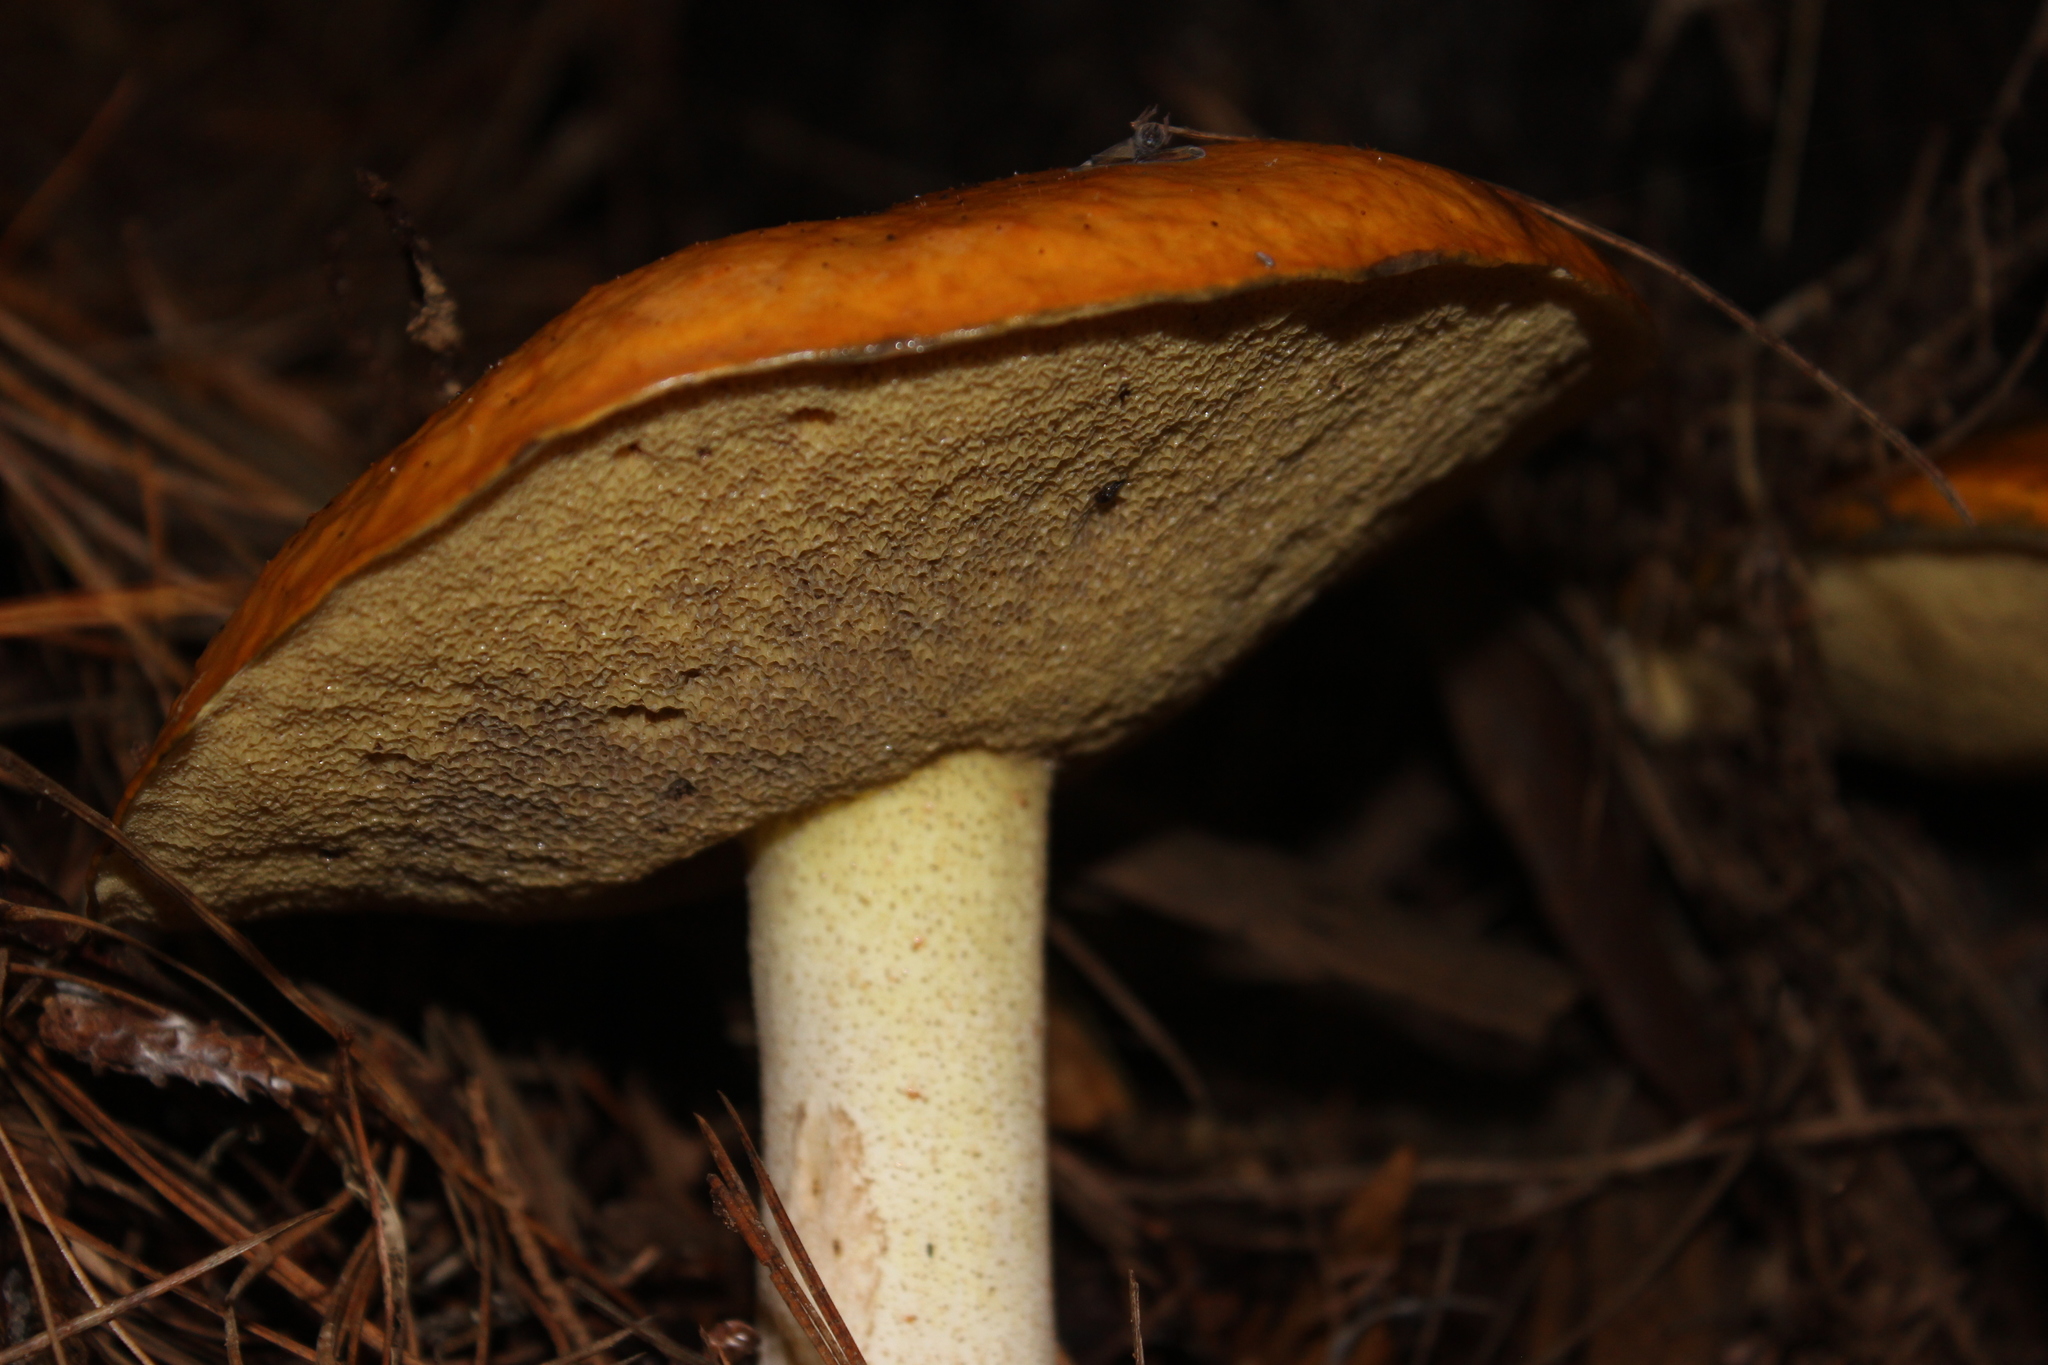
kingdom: Fungi
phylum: Basidiomycota
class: Agaricomycetes
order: Boletales
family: Suillaceae
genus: Suillus
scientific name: Suillus granulatus
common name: Weeping bolete
